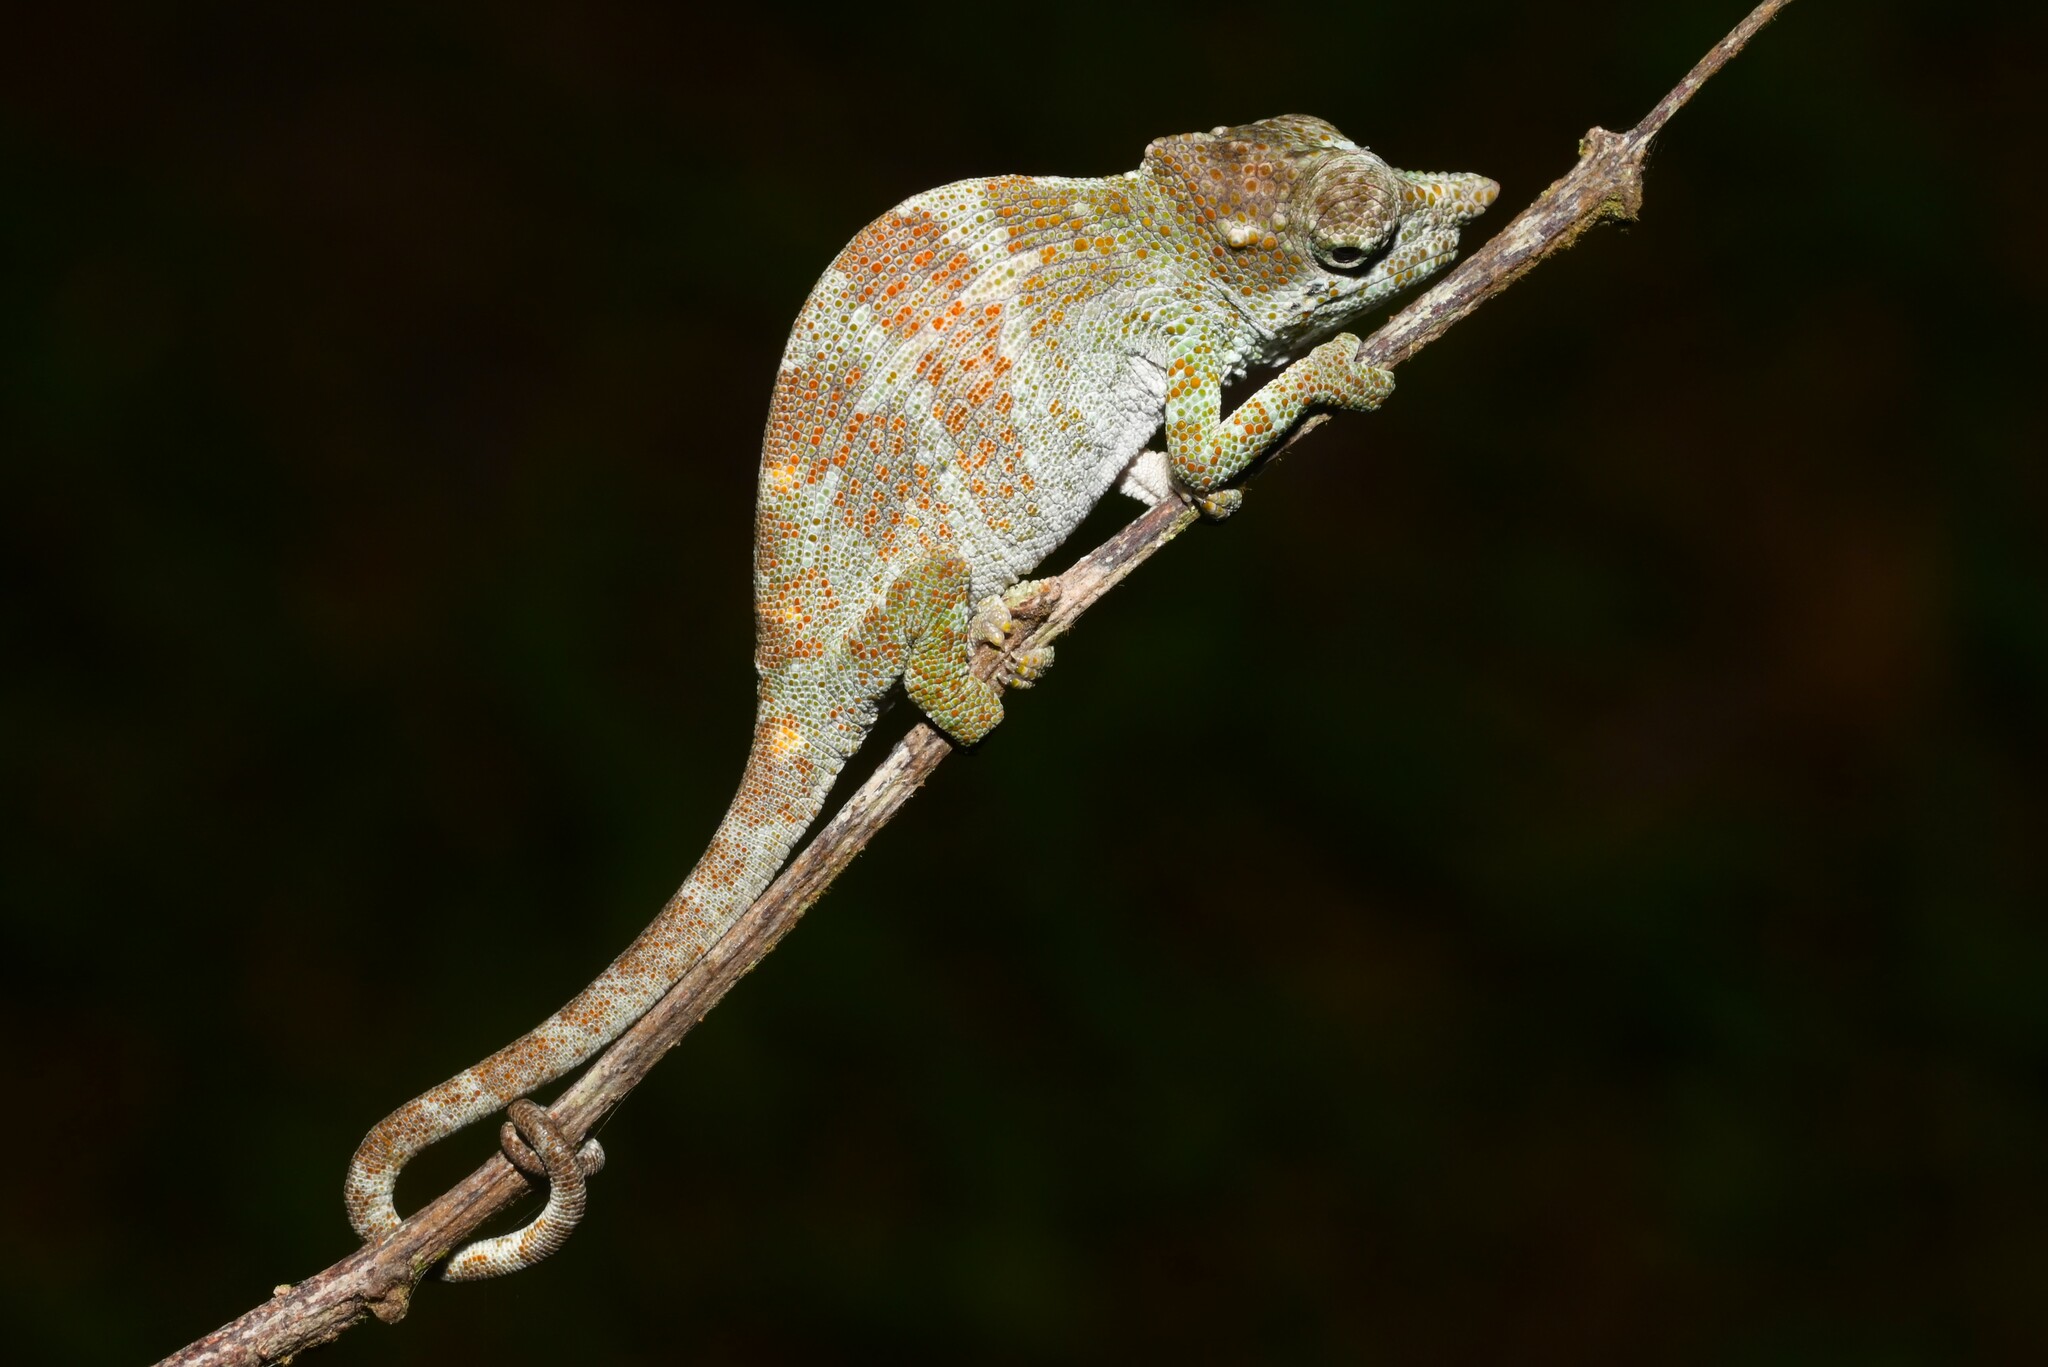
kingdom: Animalia
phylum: Chordata
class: Squamata
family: Chamaeleonidae
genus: Kinyongia
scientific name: Kinyongia msuyae
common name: Msuya’s forest chameleon
